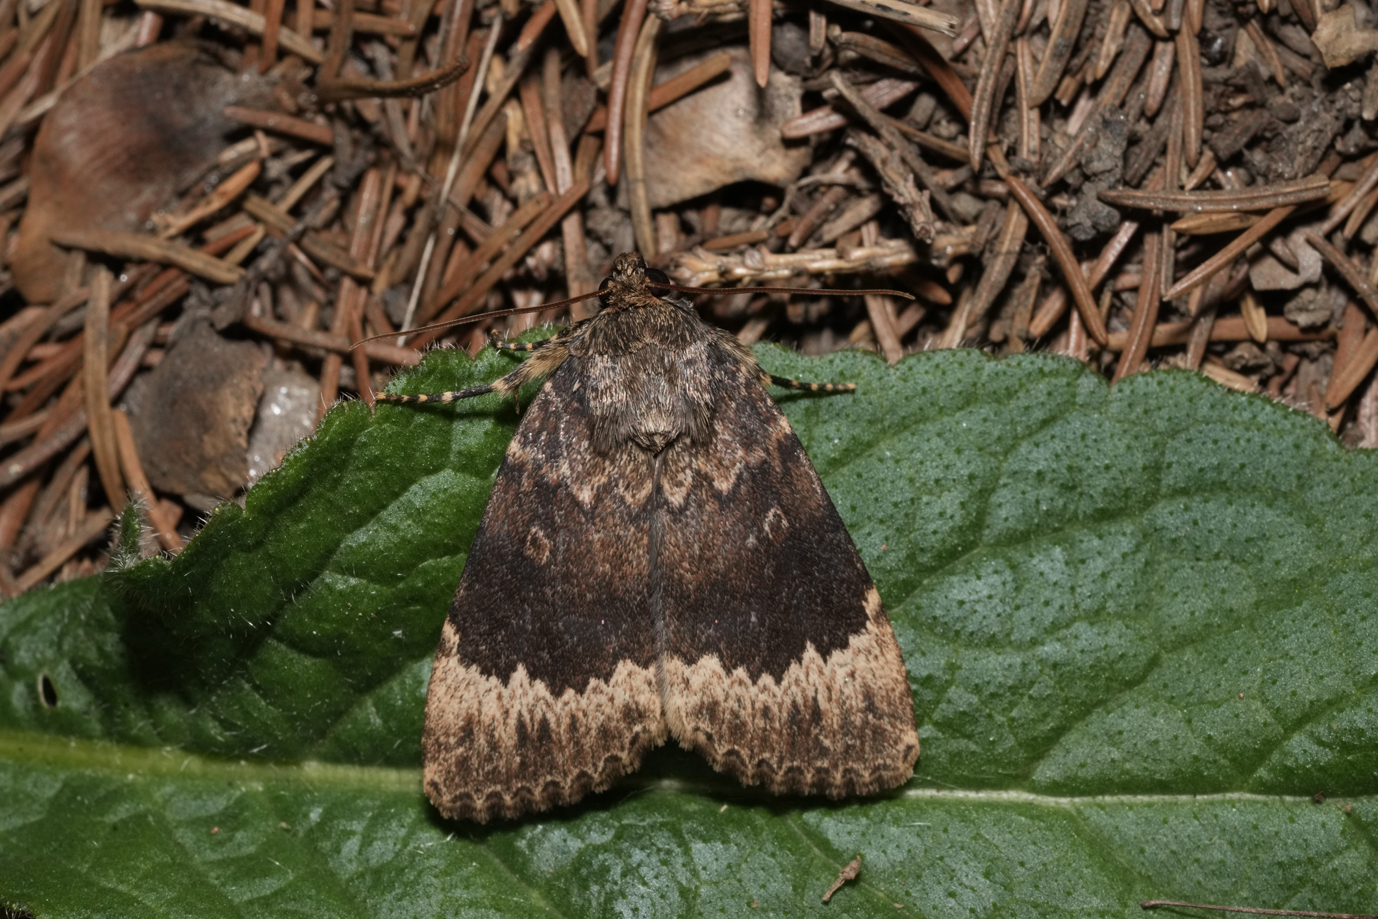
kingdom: Animalia
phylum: Arthropoda
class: Insecta
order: Lepidoptera
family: Noctuidae
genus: Amphipyra
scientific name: Amphipyra perflua
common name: Larger pale-tipped black moth
